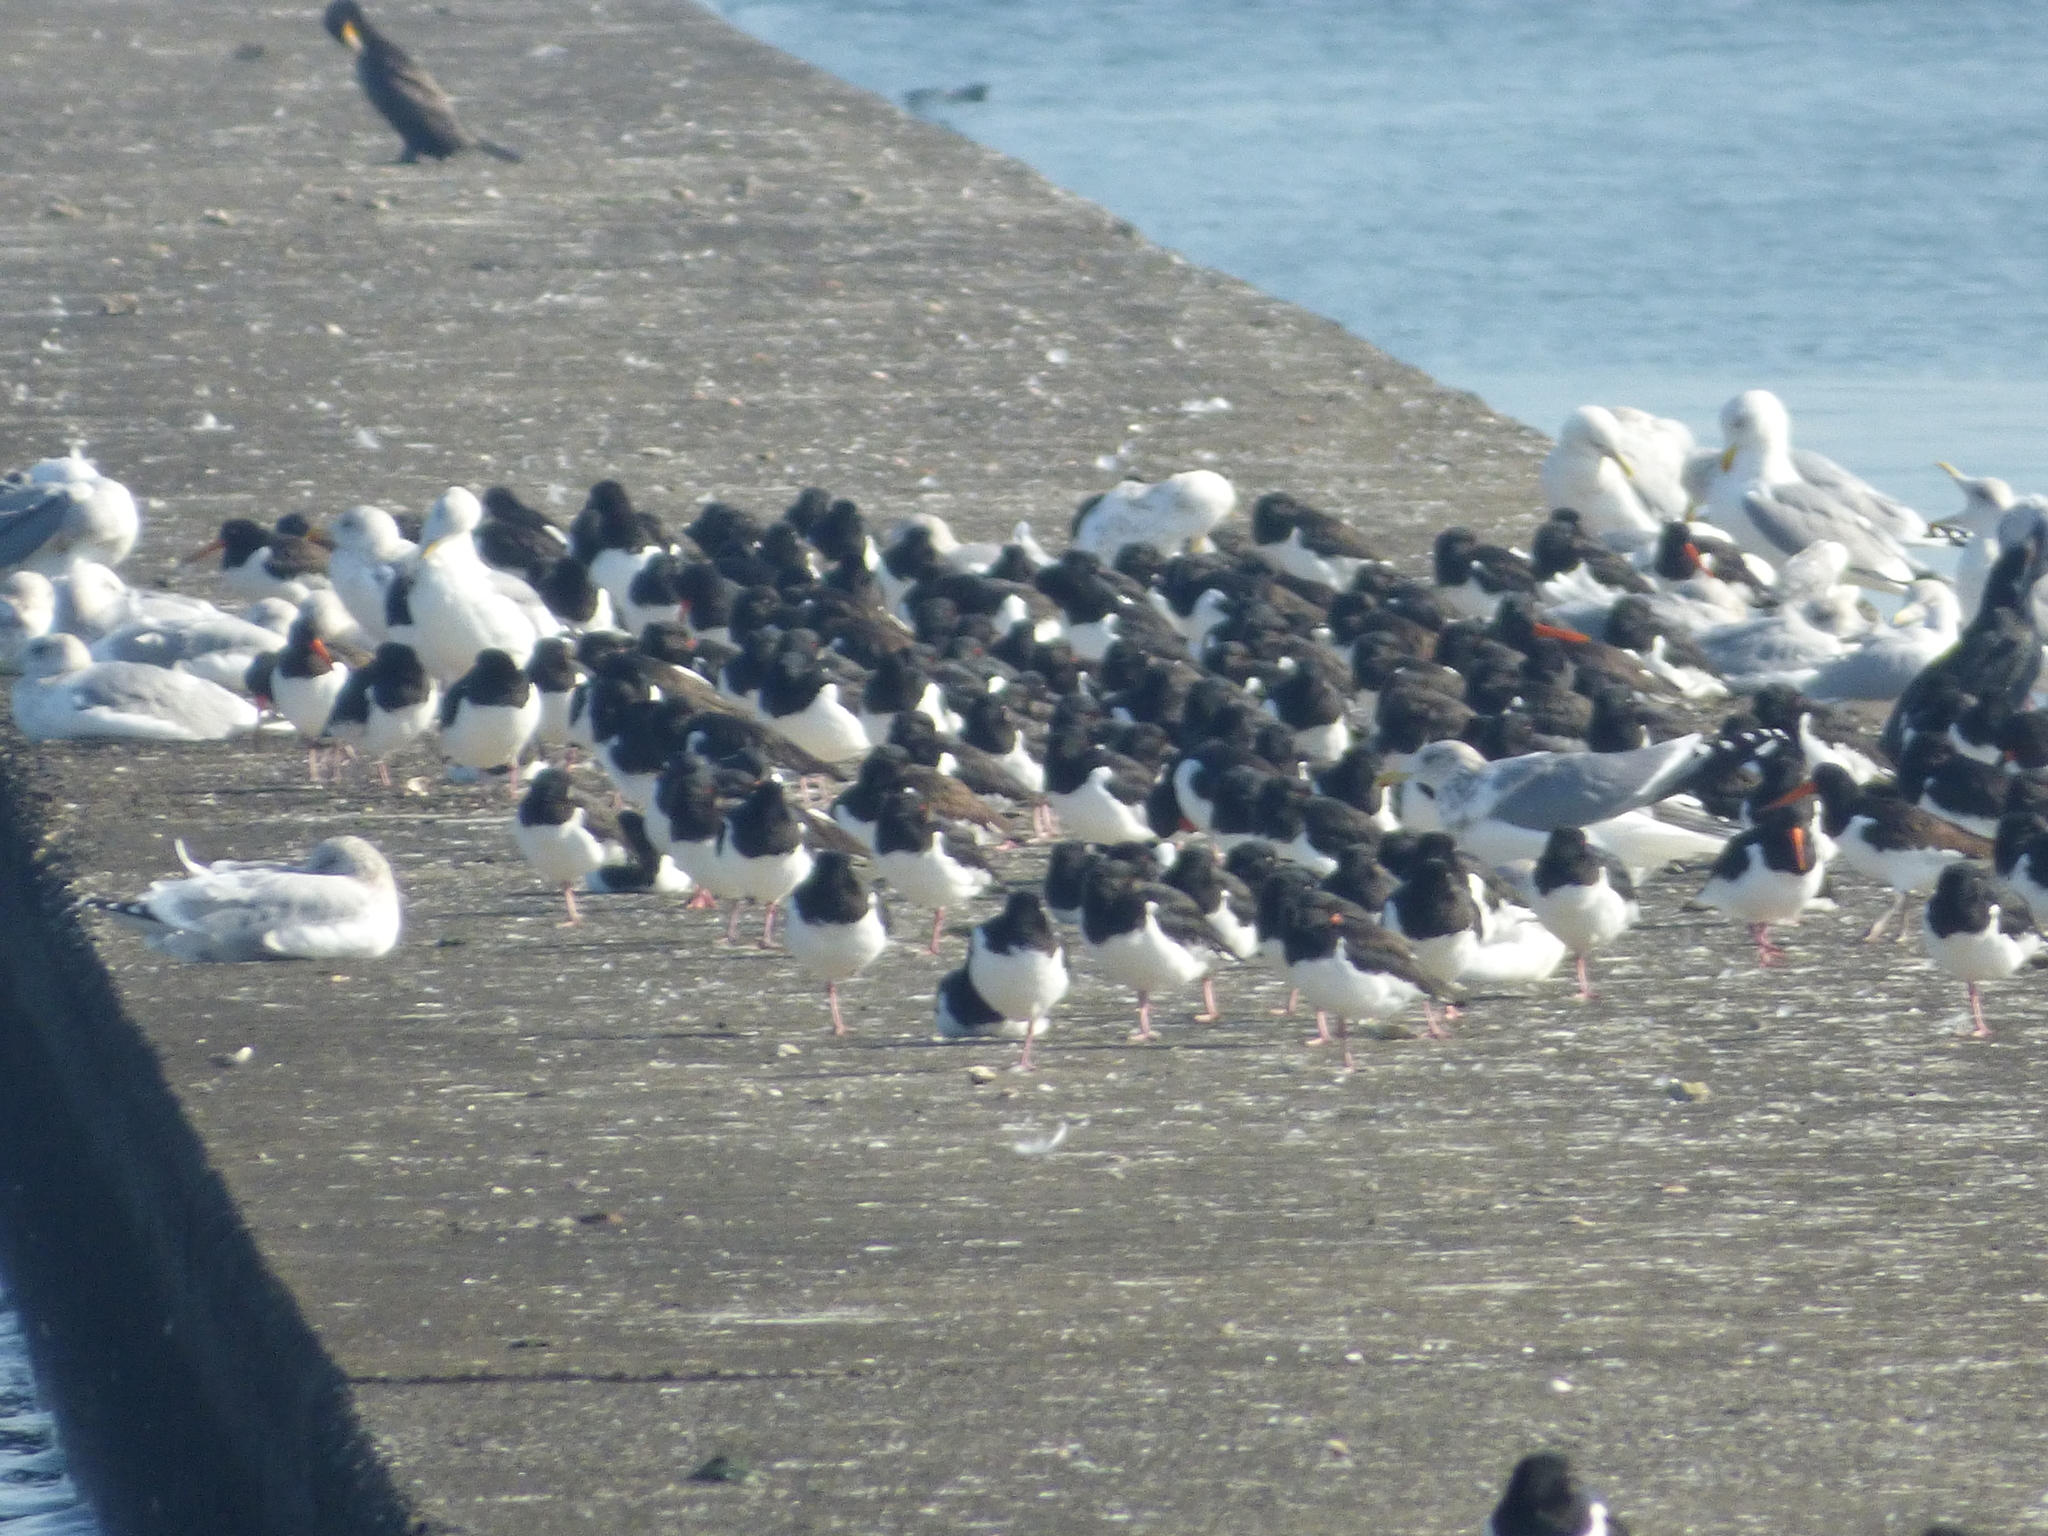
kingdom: Animalia
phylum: Chordata
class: Aves
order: Charadriiformes
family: Laridae
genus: Larus
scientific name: Larus argentatus
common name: Herring gull
